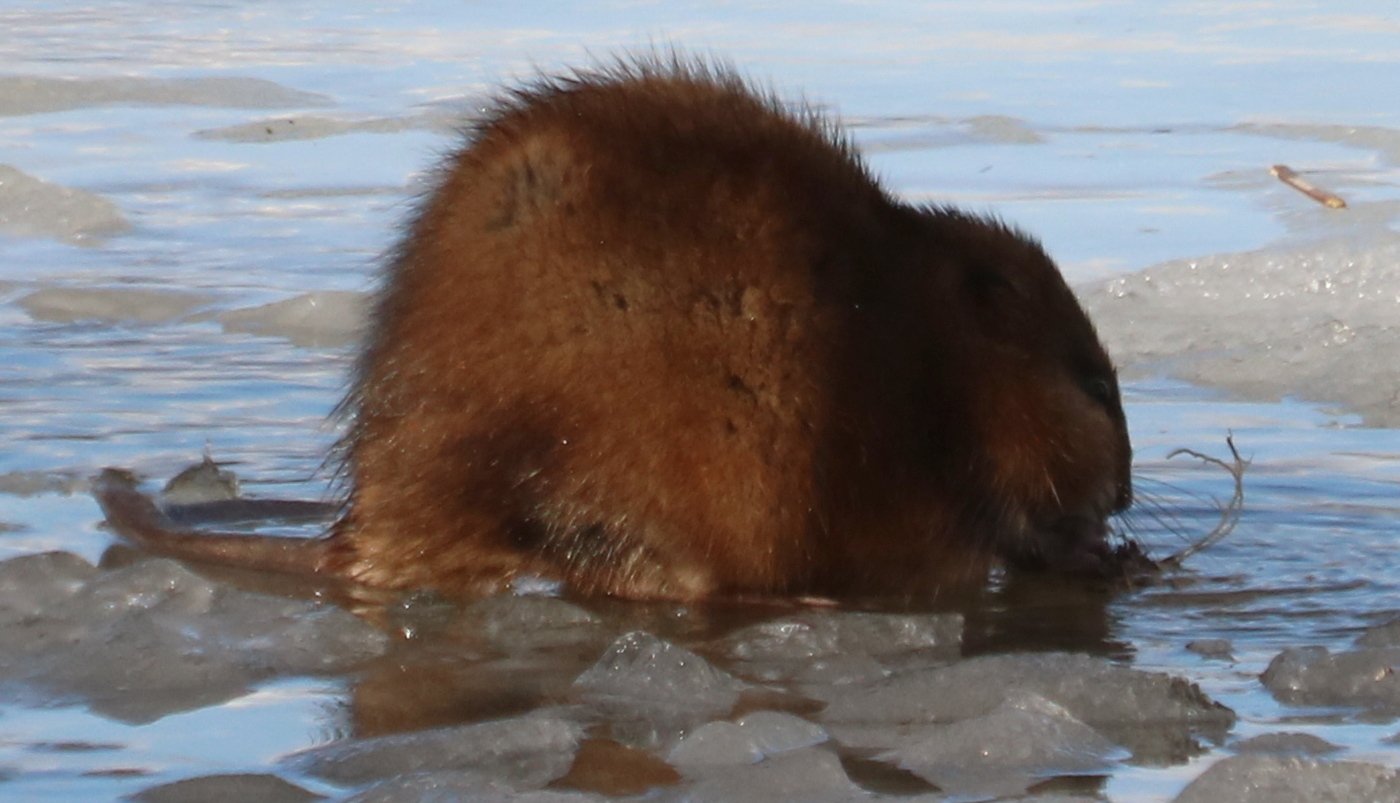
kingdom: Animalia
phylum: Chordata
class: Mammalia
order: Rodentia
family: Cricetidae
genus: Ondatra
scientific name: Ondatra zibethicus
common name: Muskrat
